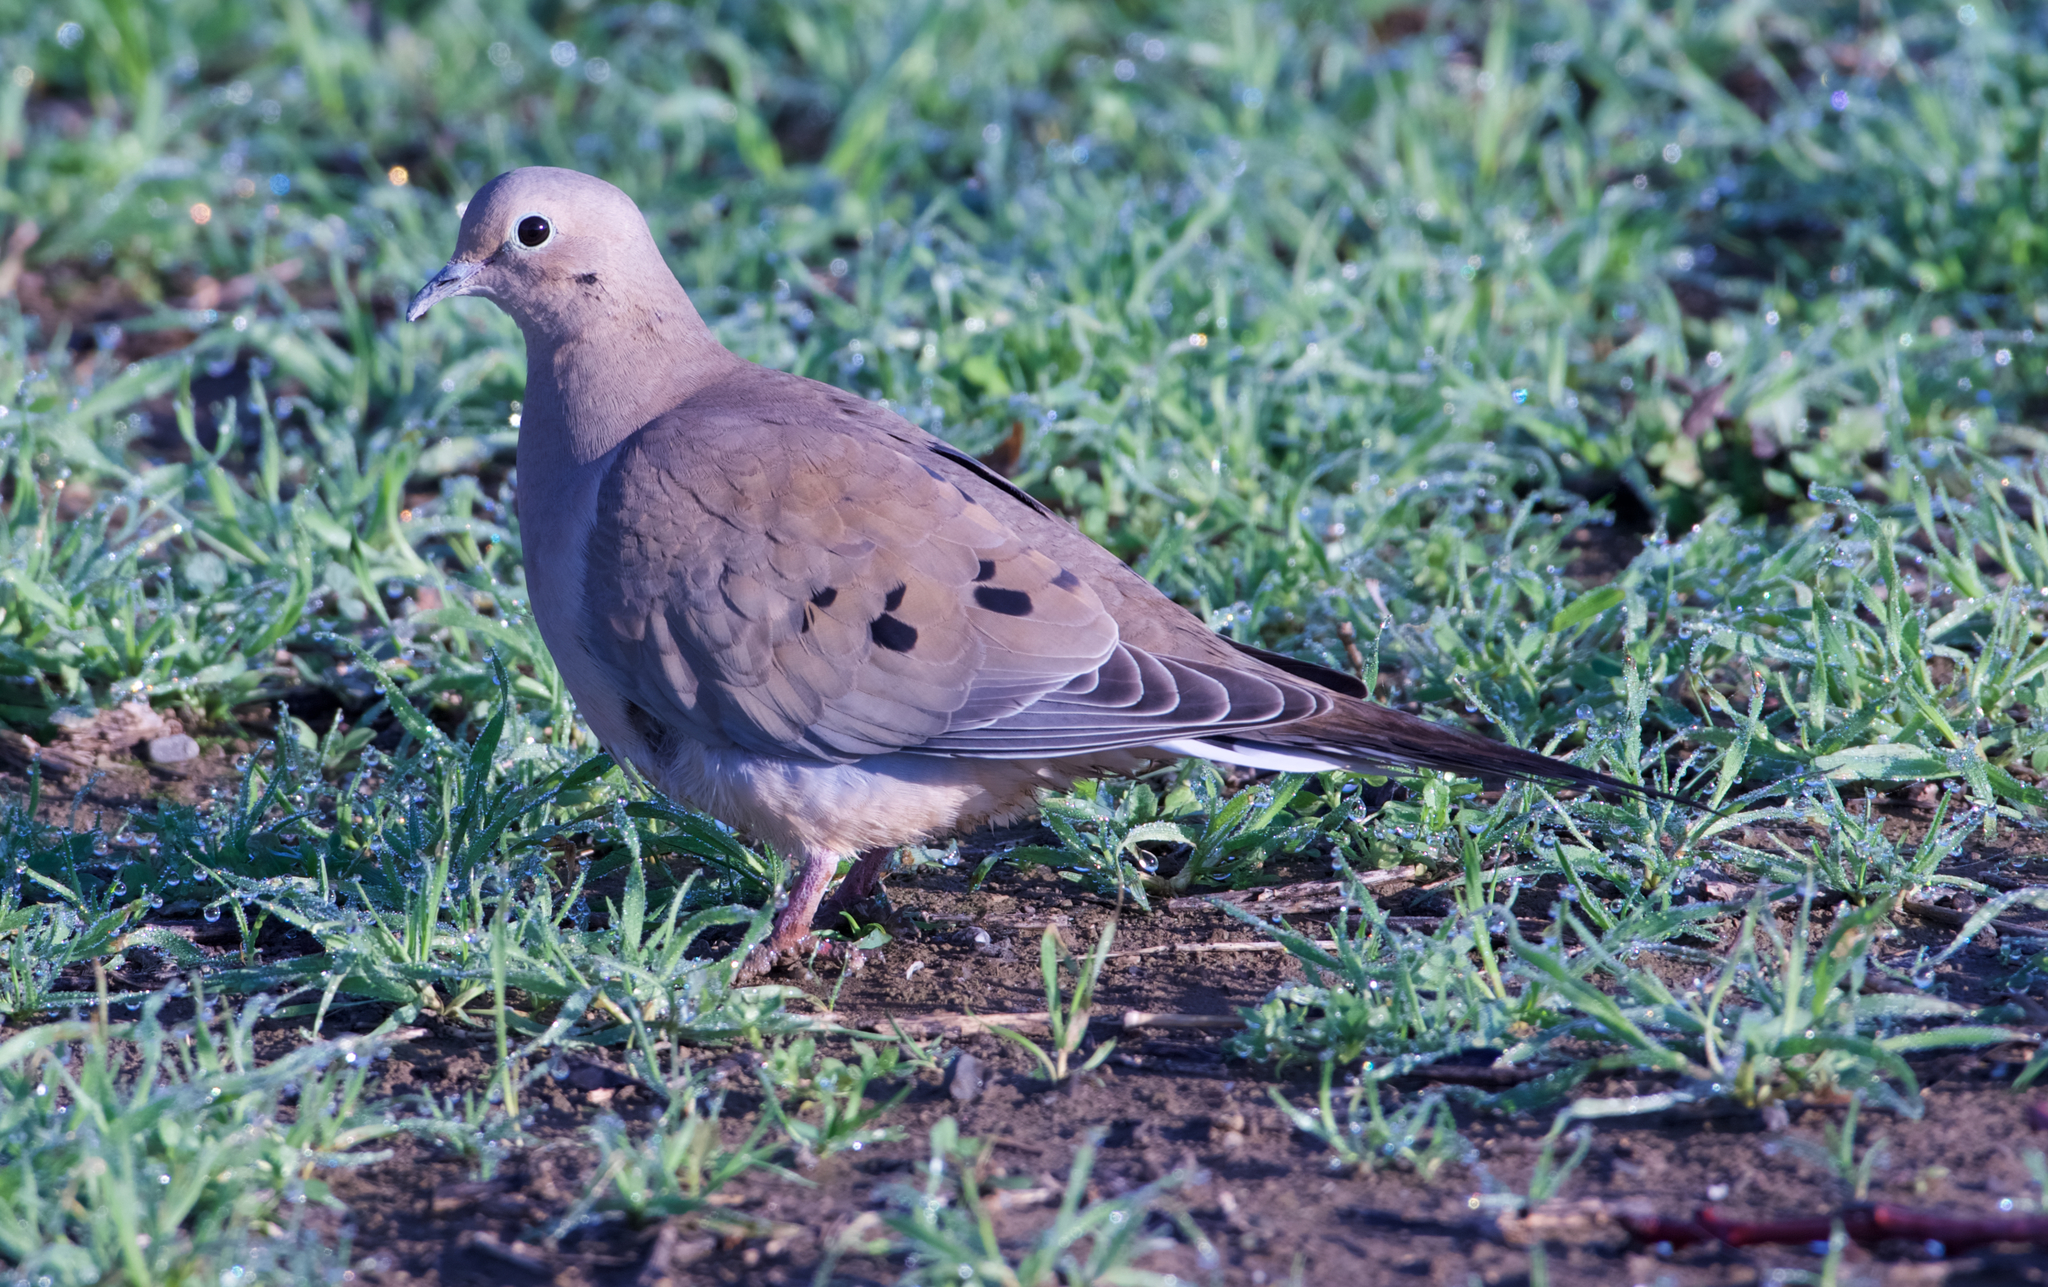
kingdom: Animalia
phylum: Chordata
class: Aves
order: Columbiformes
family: Columbidae
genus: Zenaida
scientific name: Zenaida macroura
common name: Mourning dove
